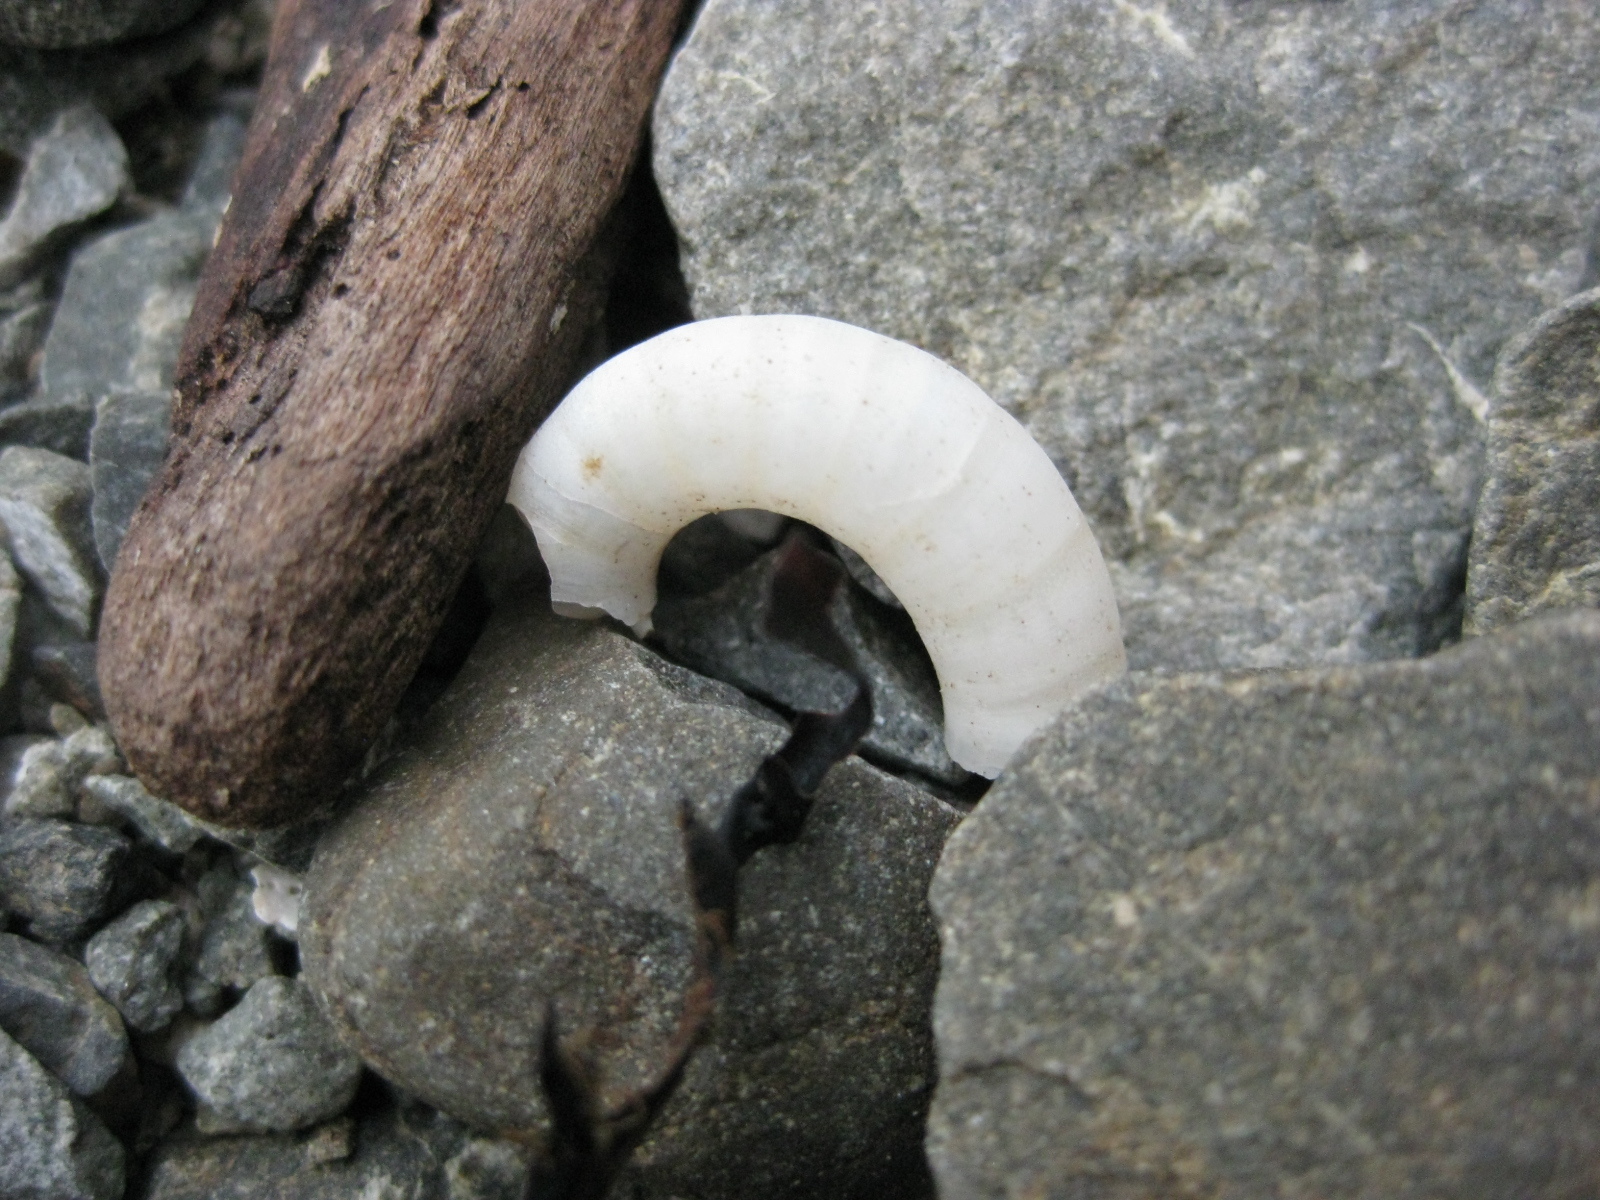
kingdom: Animalia
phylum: Mollusca
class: Cephalopoda
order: Spirulida
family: Spirulidae
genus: Spirula
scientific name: Spirula spirula
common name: Ram's horn squid
